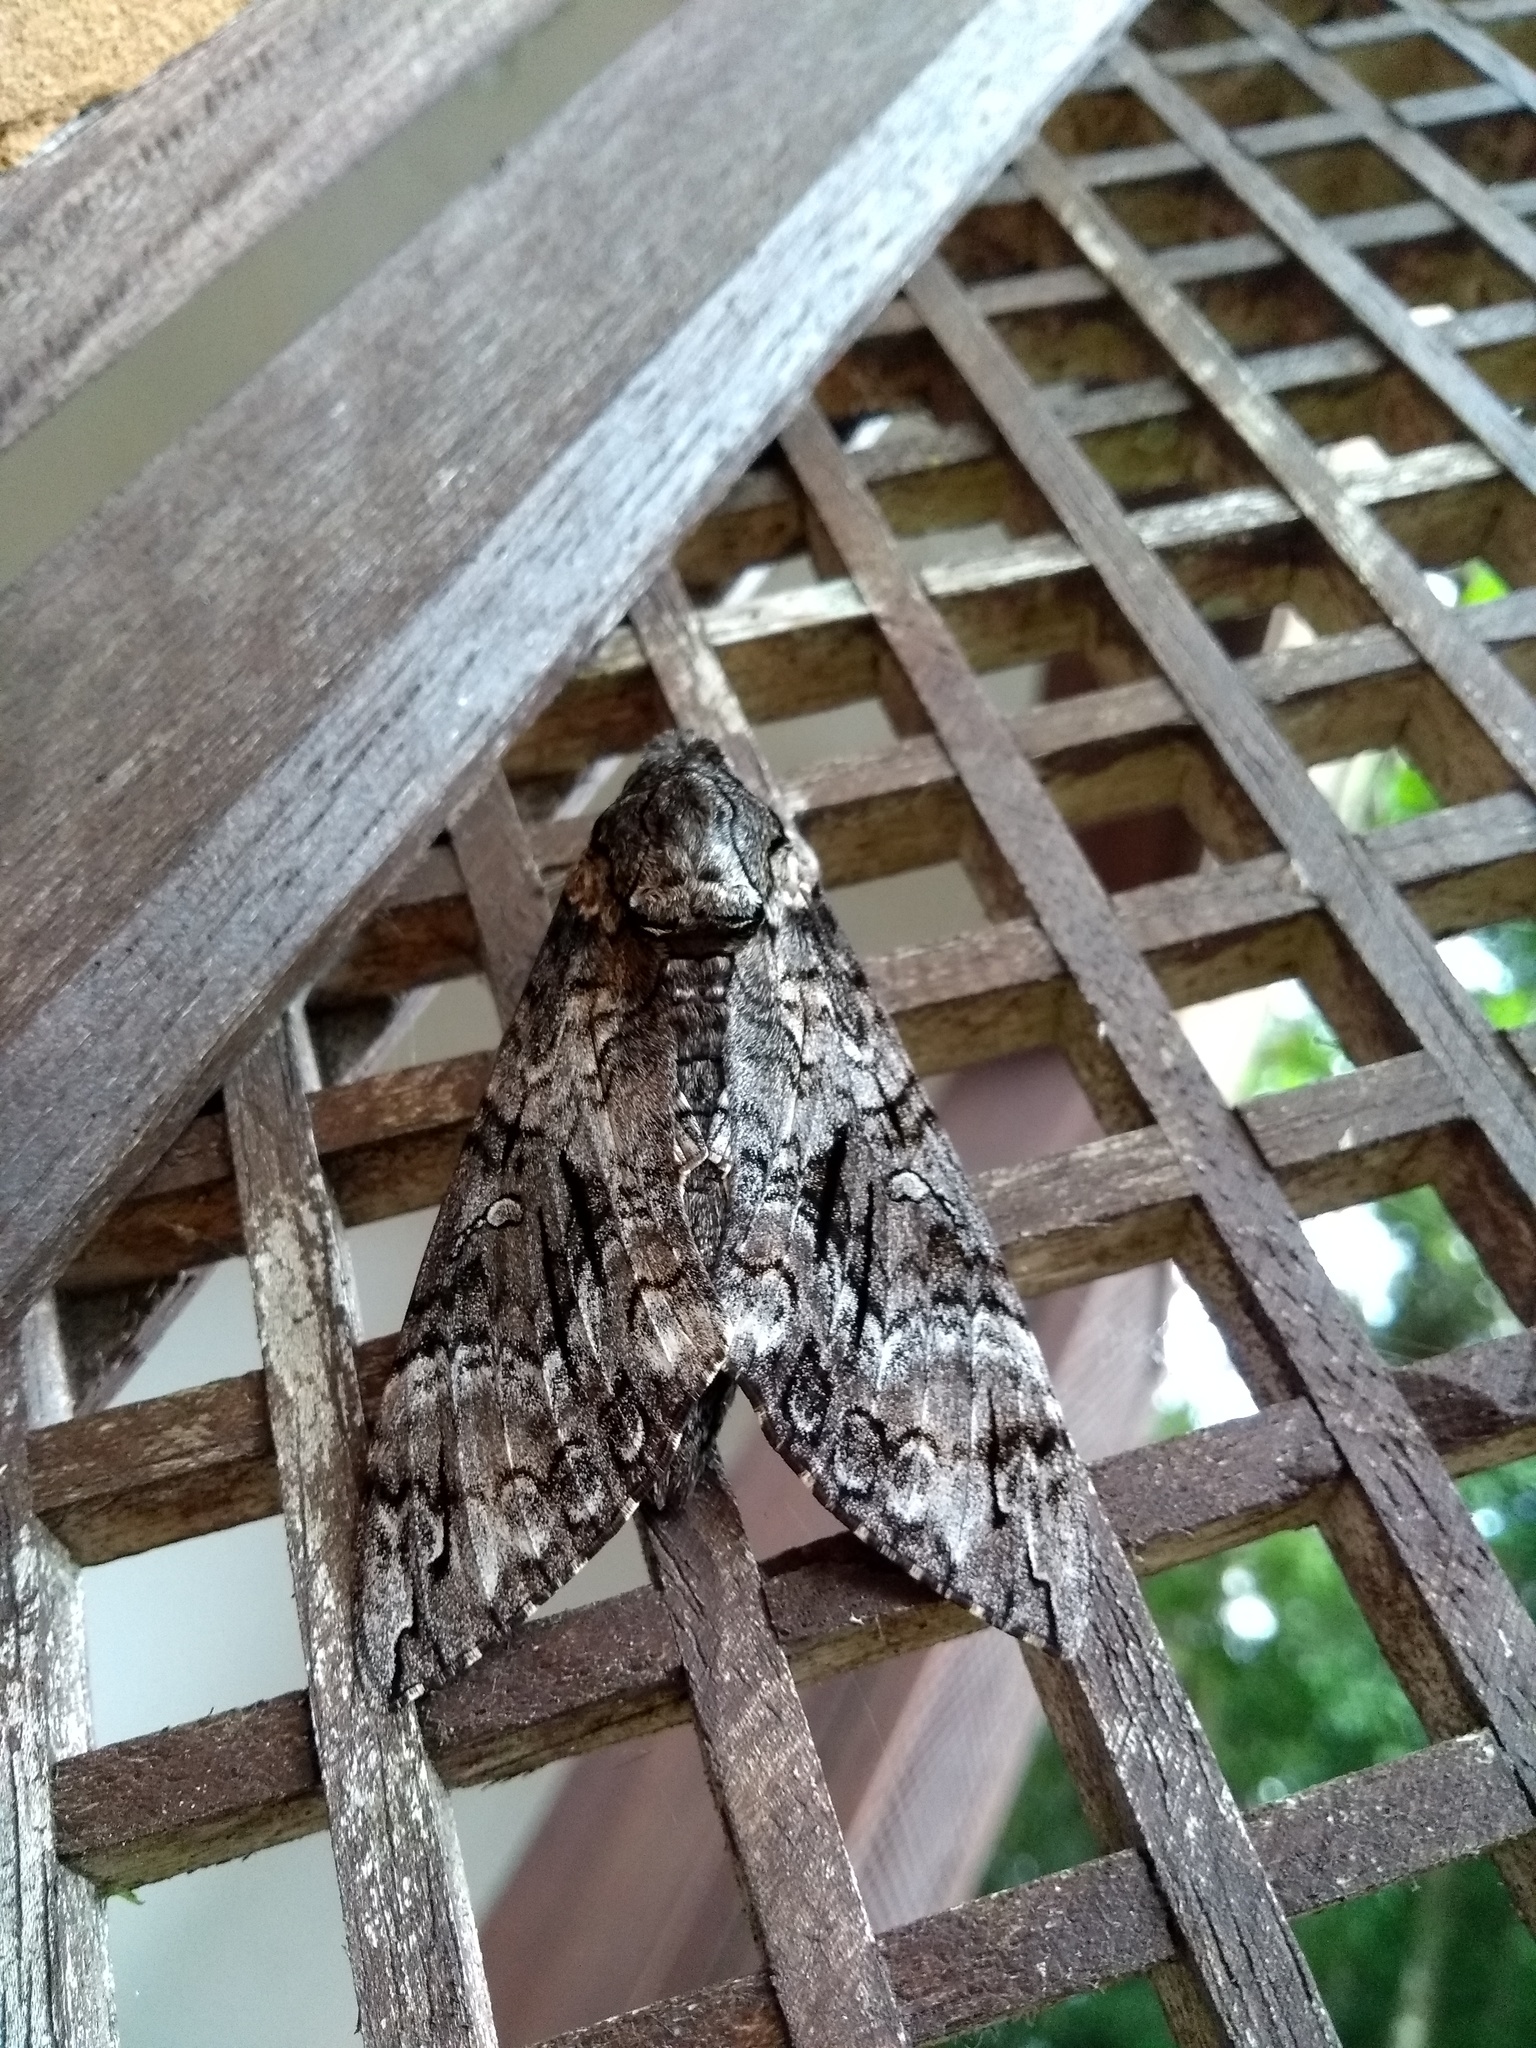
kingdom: Animalia
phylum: Arthropoda
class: Insecta
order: Lepidoptera
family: Sphingidae
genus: Agrius
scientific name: Agrius cingulata
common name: Pink-spotted hawkmoth
